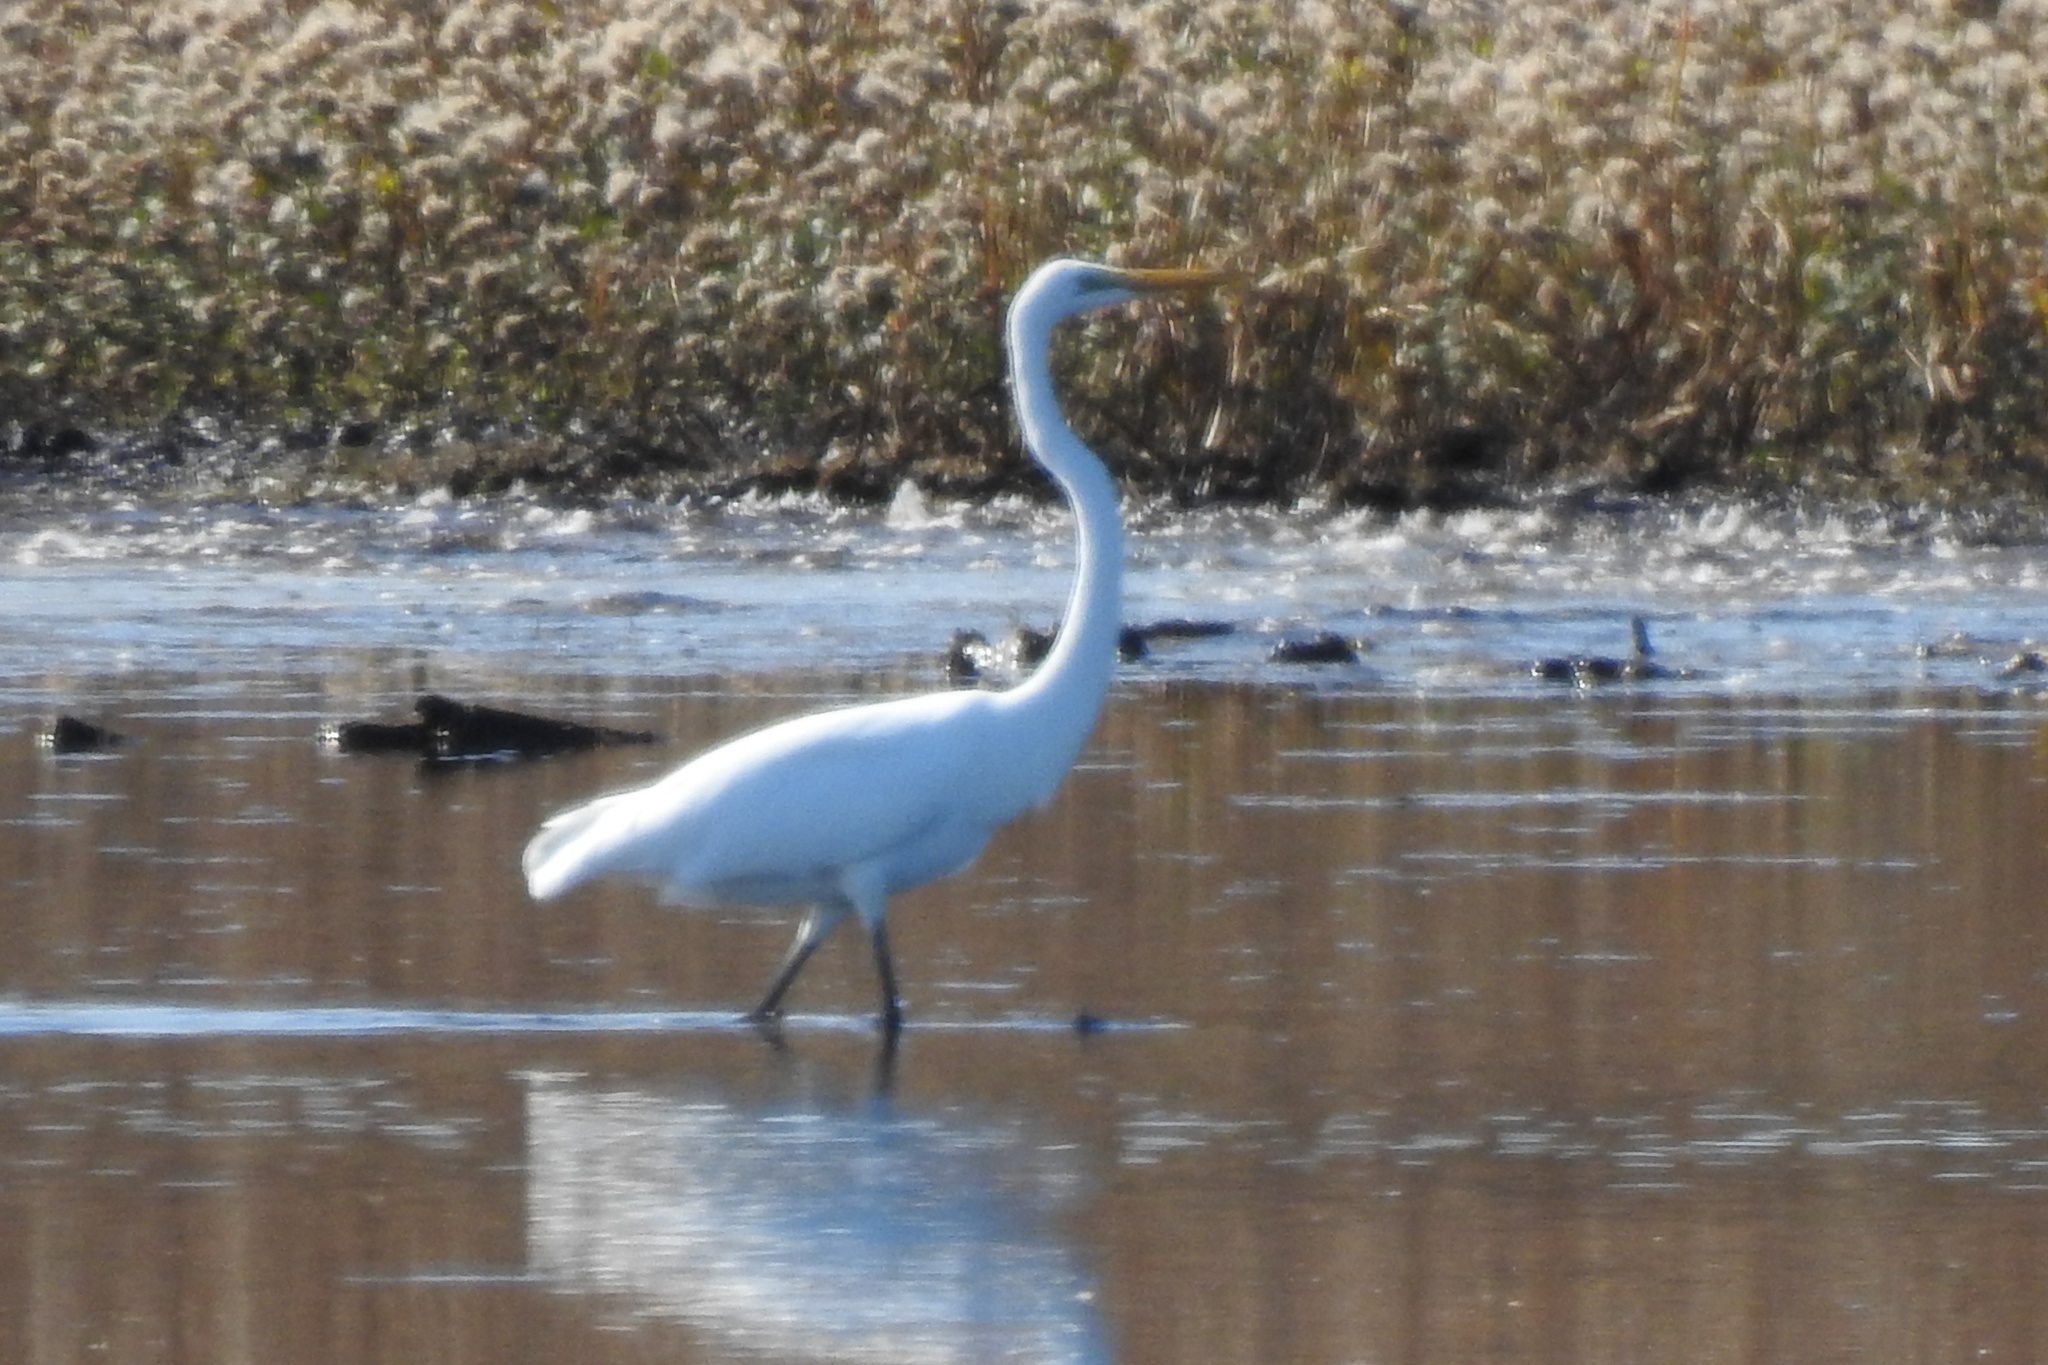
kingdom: Animalia
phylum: Chordata
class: Aves
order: Pelecaniformes
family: Ardeidae
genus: Ardea
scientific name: Ardea alba
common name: Great egret
